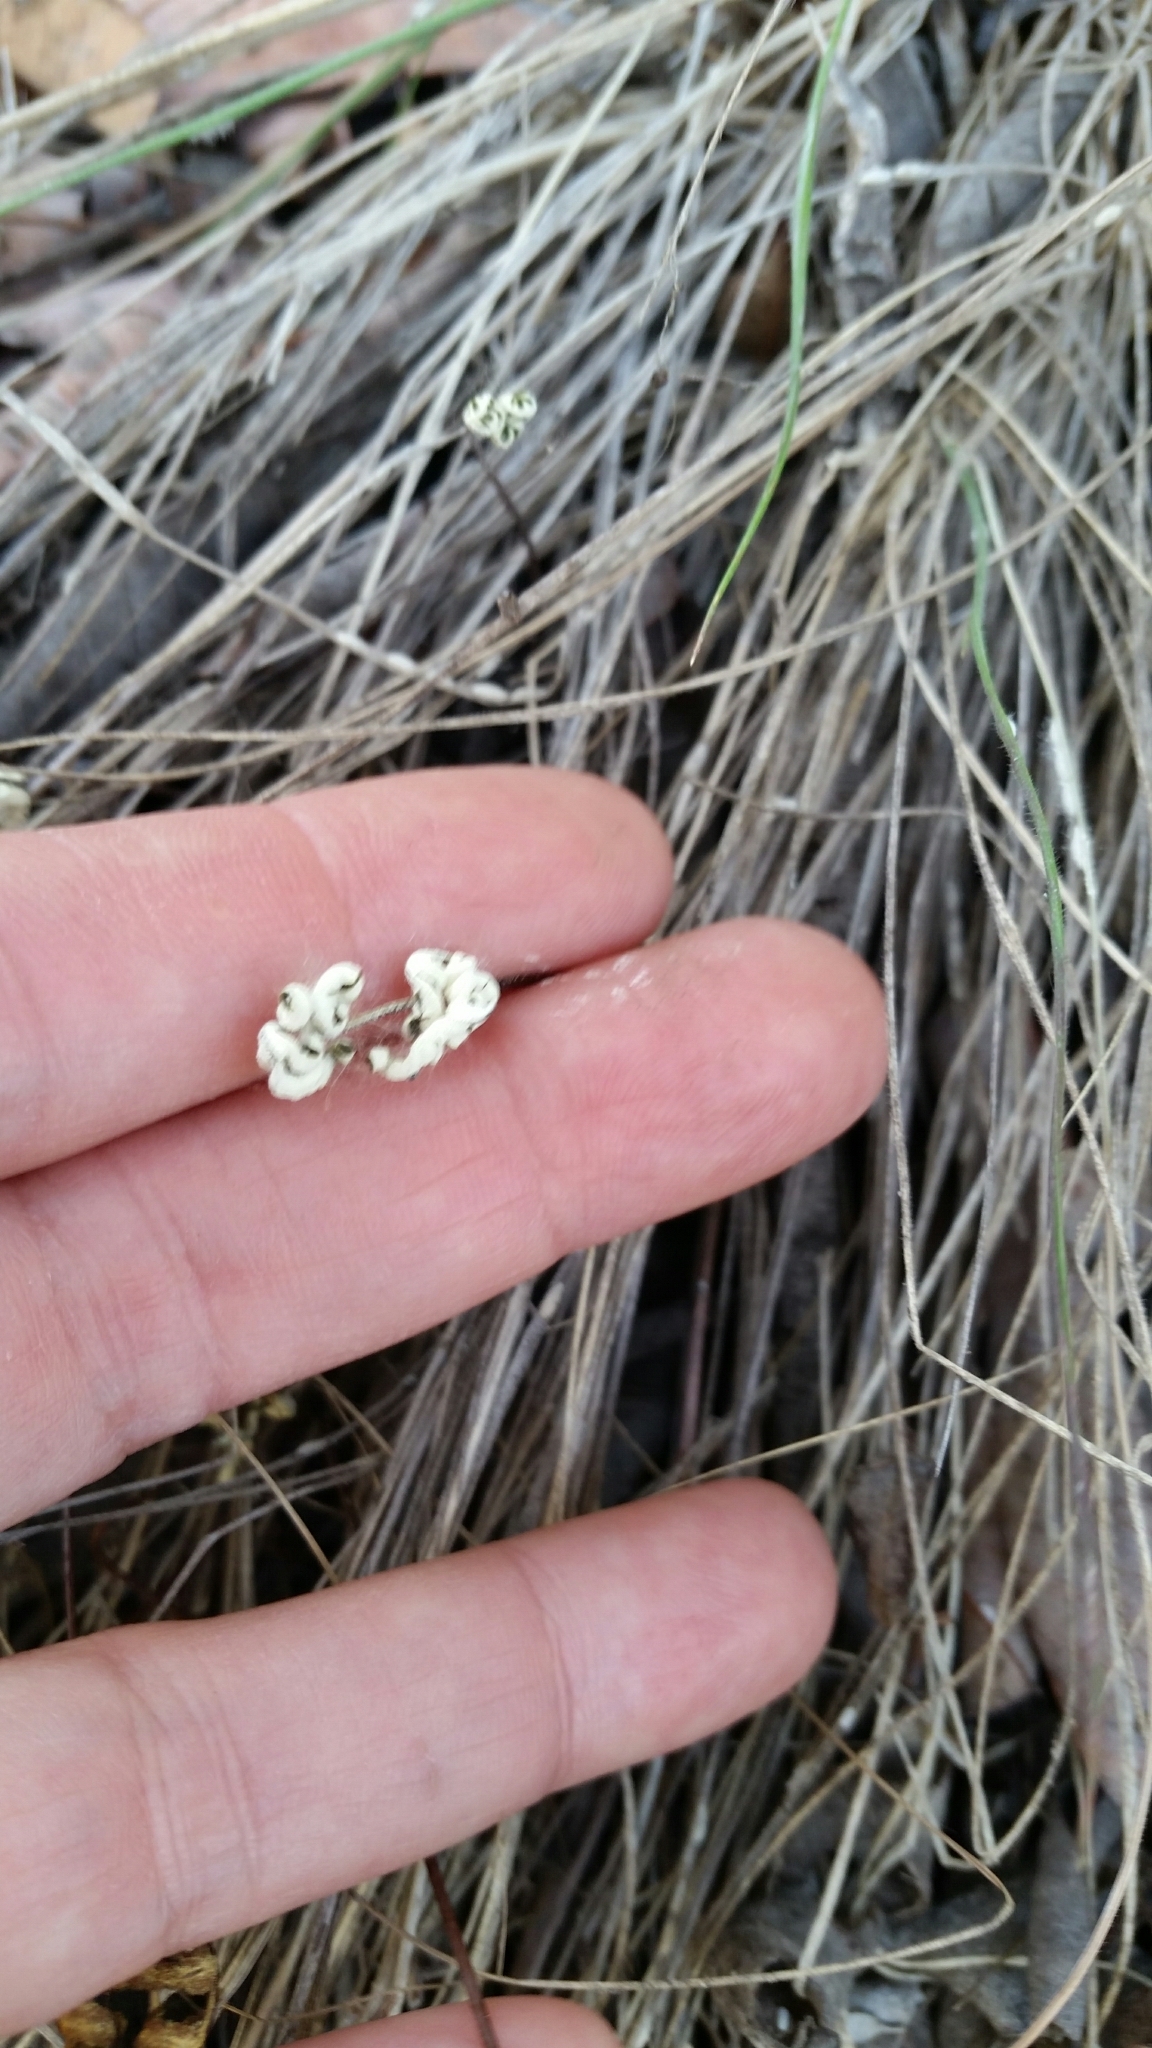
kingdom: Plantae
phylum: Tracheophyta
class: Polypodiopsida
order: Polypodiales
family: Pteridaceae
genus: Pentagramma
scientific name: Pentagramma glanduloviscida
